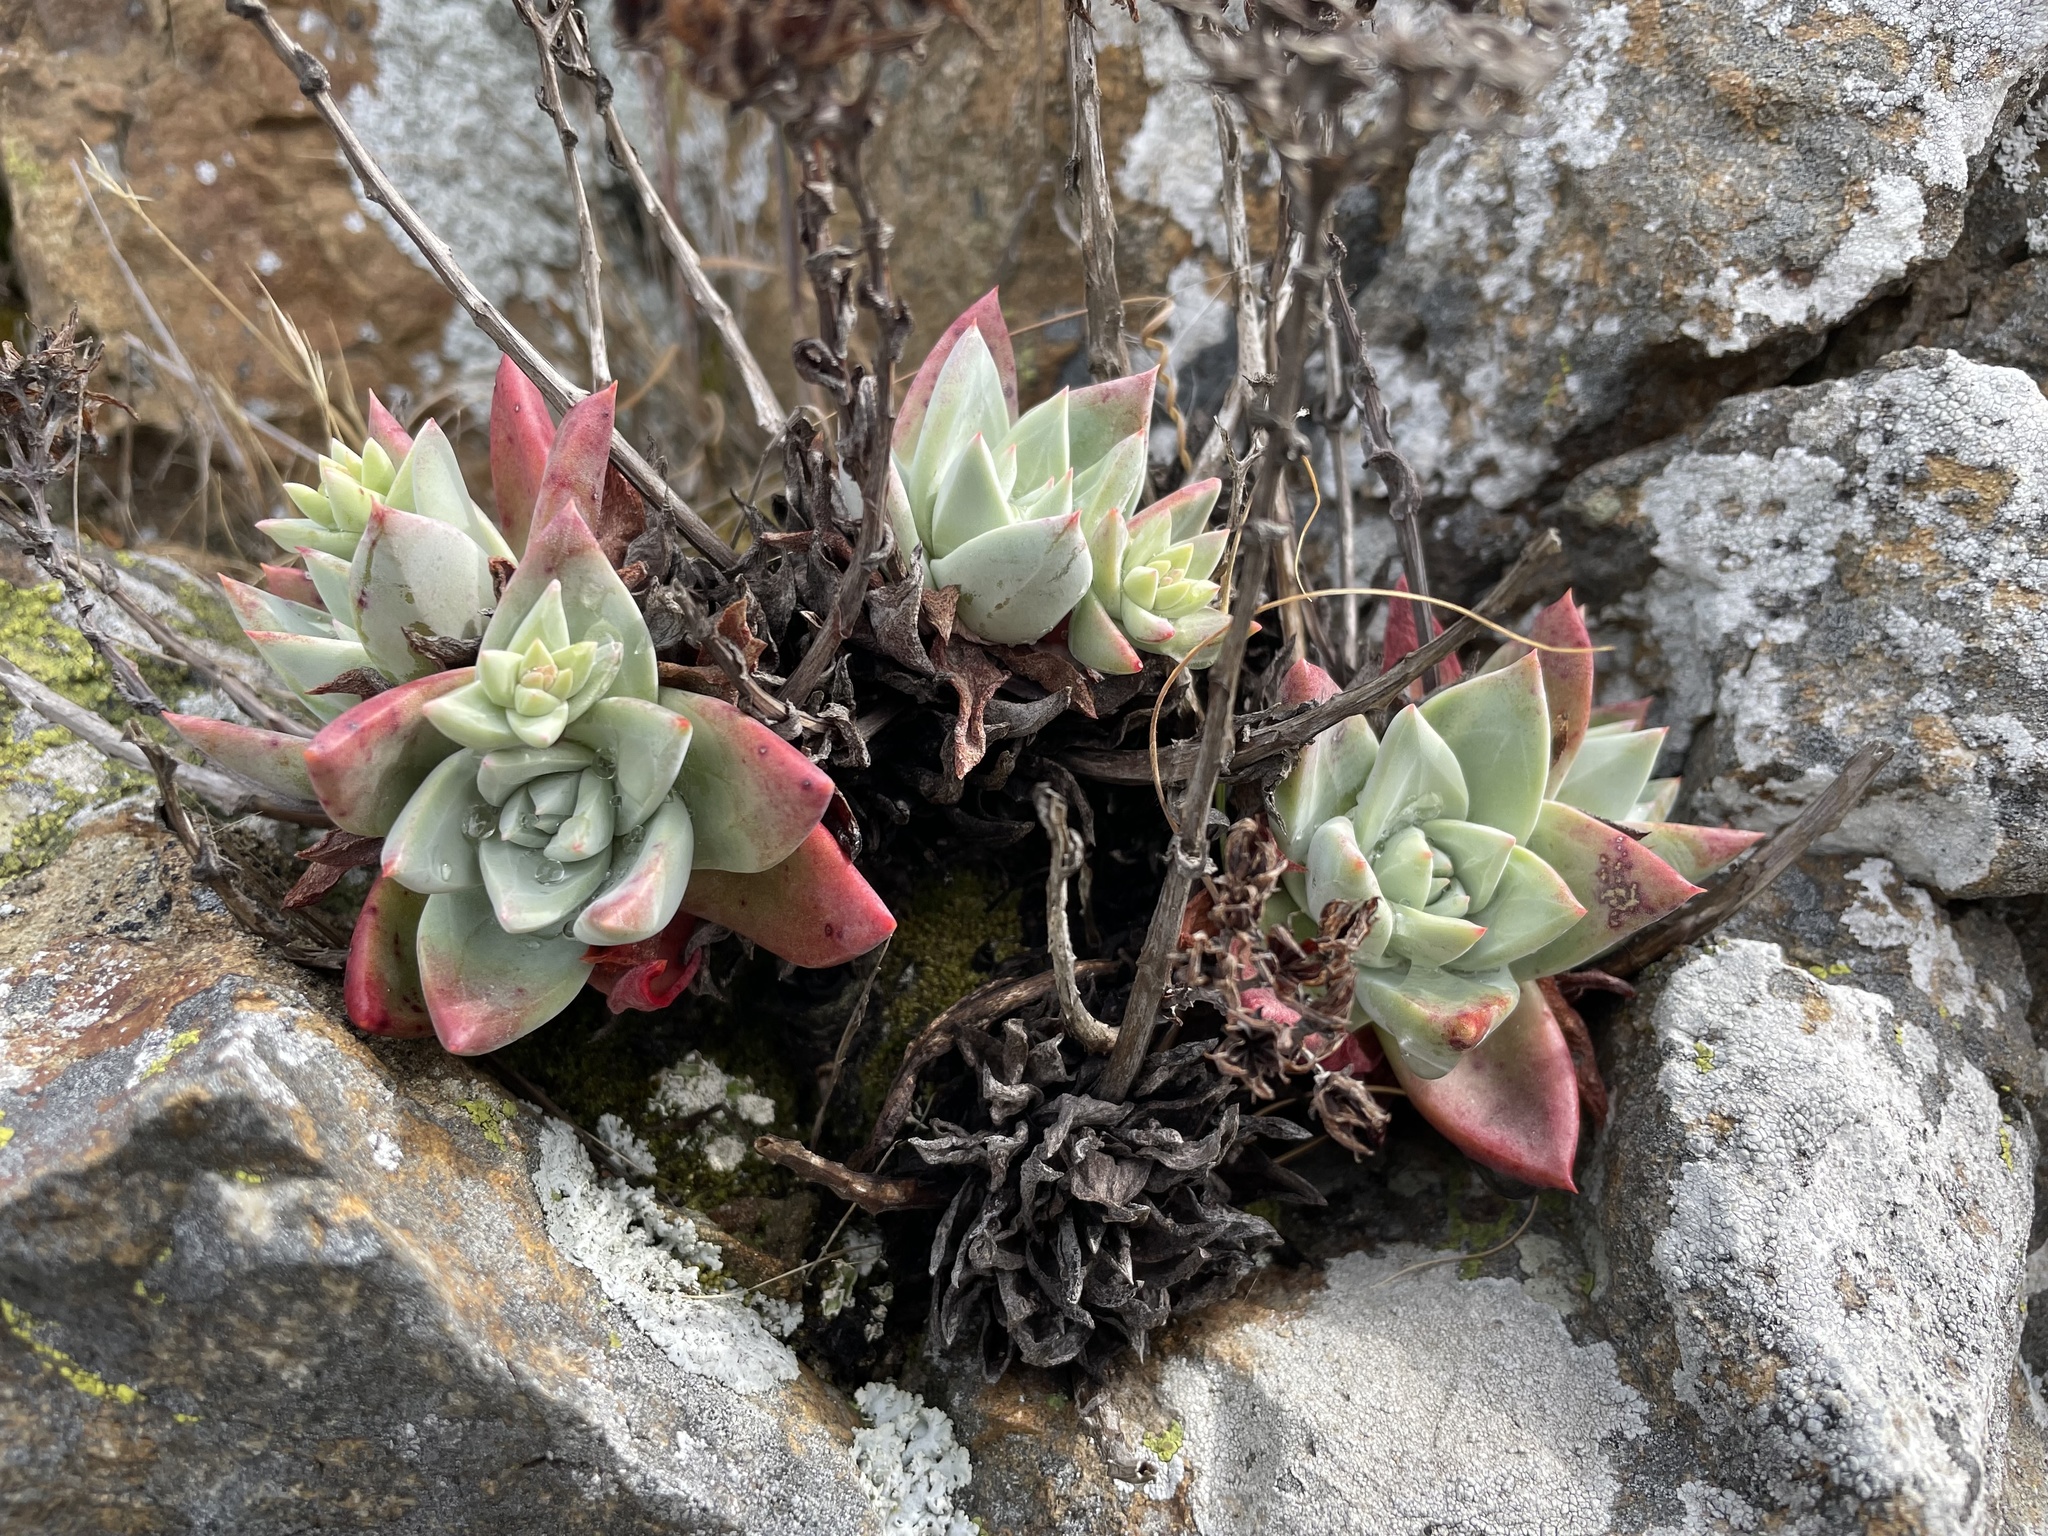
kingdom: Plantae
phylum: Tracheophyta
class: Magnoliopsida
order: Saxifragales
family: Crassulaceae
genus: Dudleya
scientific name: Dudleya farinosa
